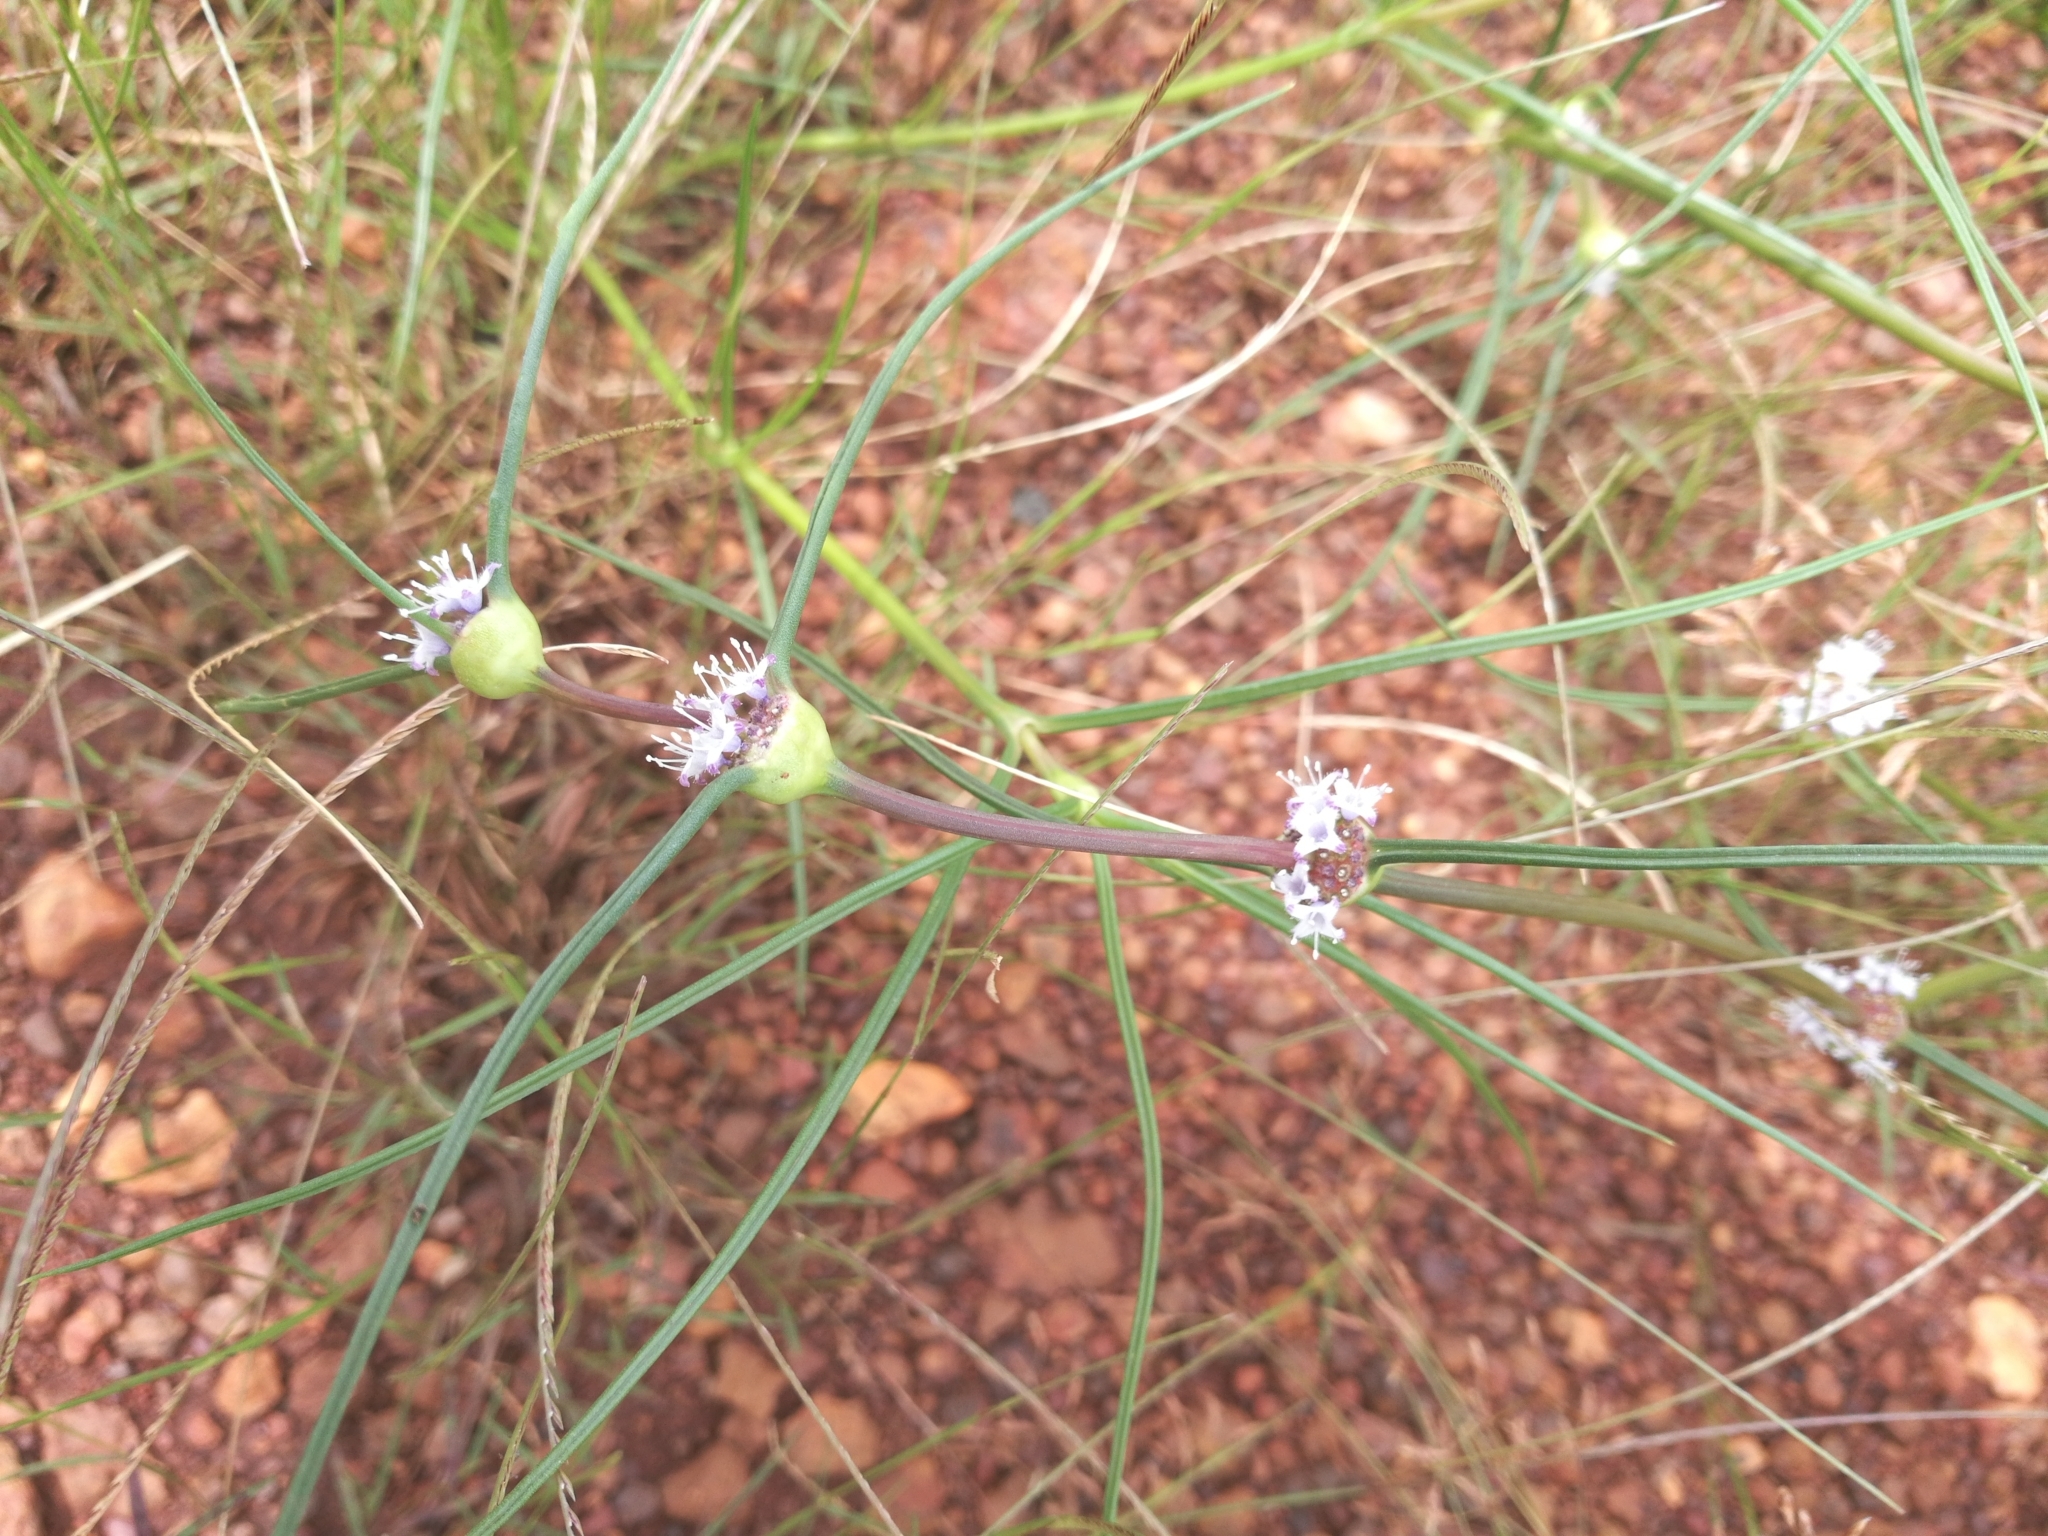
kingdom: Plantae
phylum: Tracheophyta
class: Magnoliopsida
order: Gentianales
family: Rubiaceae
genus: Spermacoce
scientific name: Spermacoce filifolia
